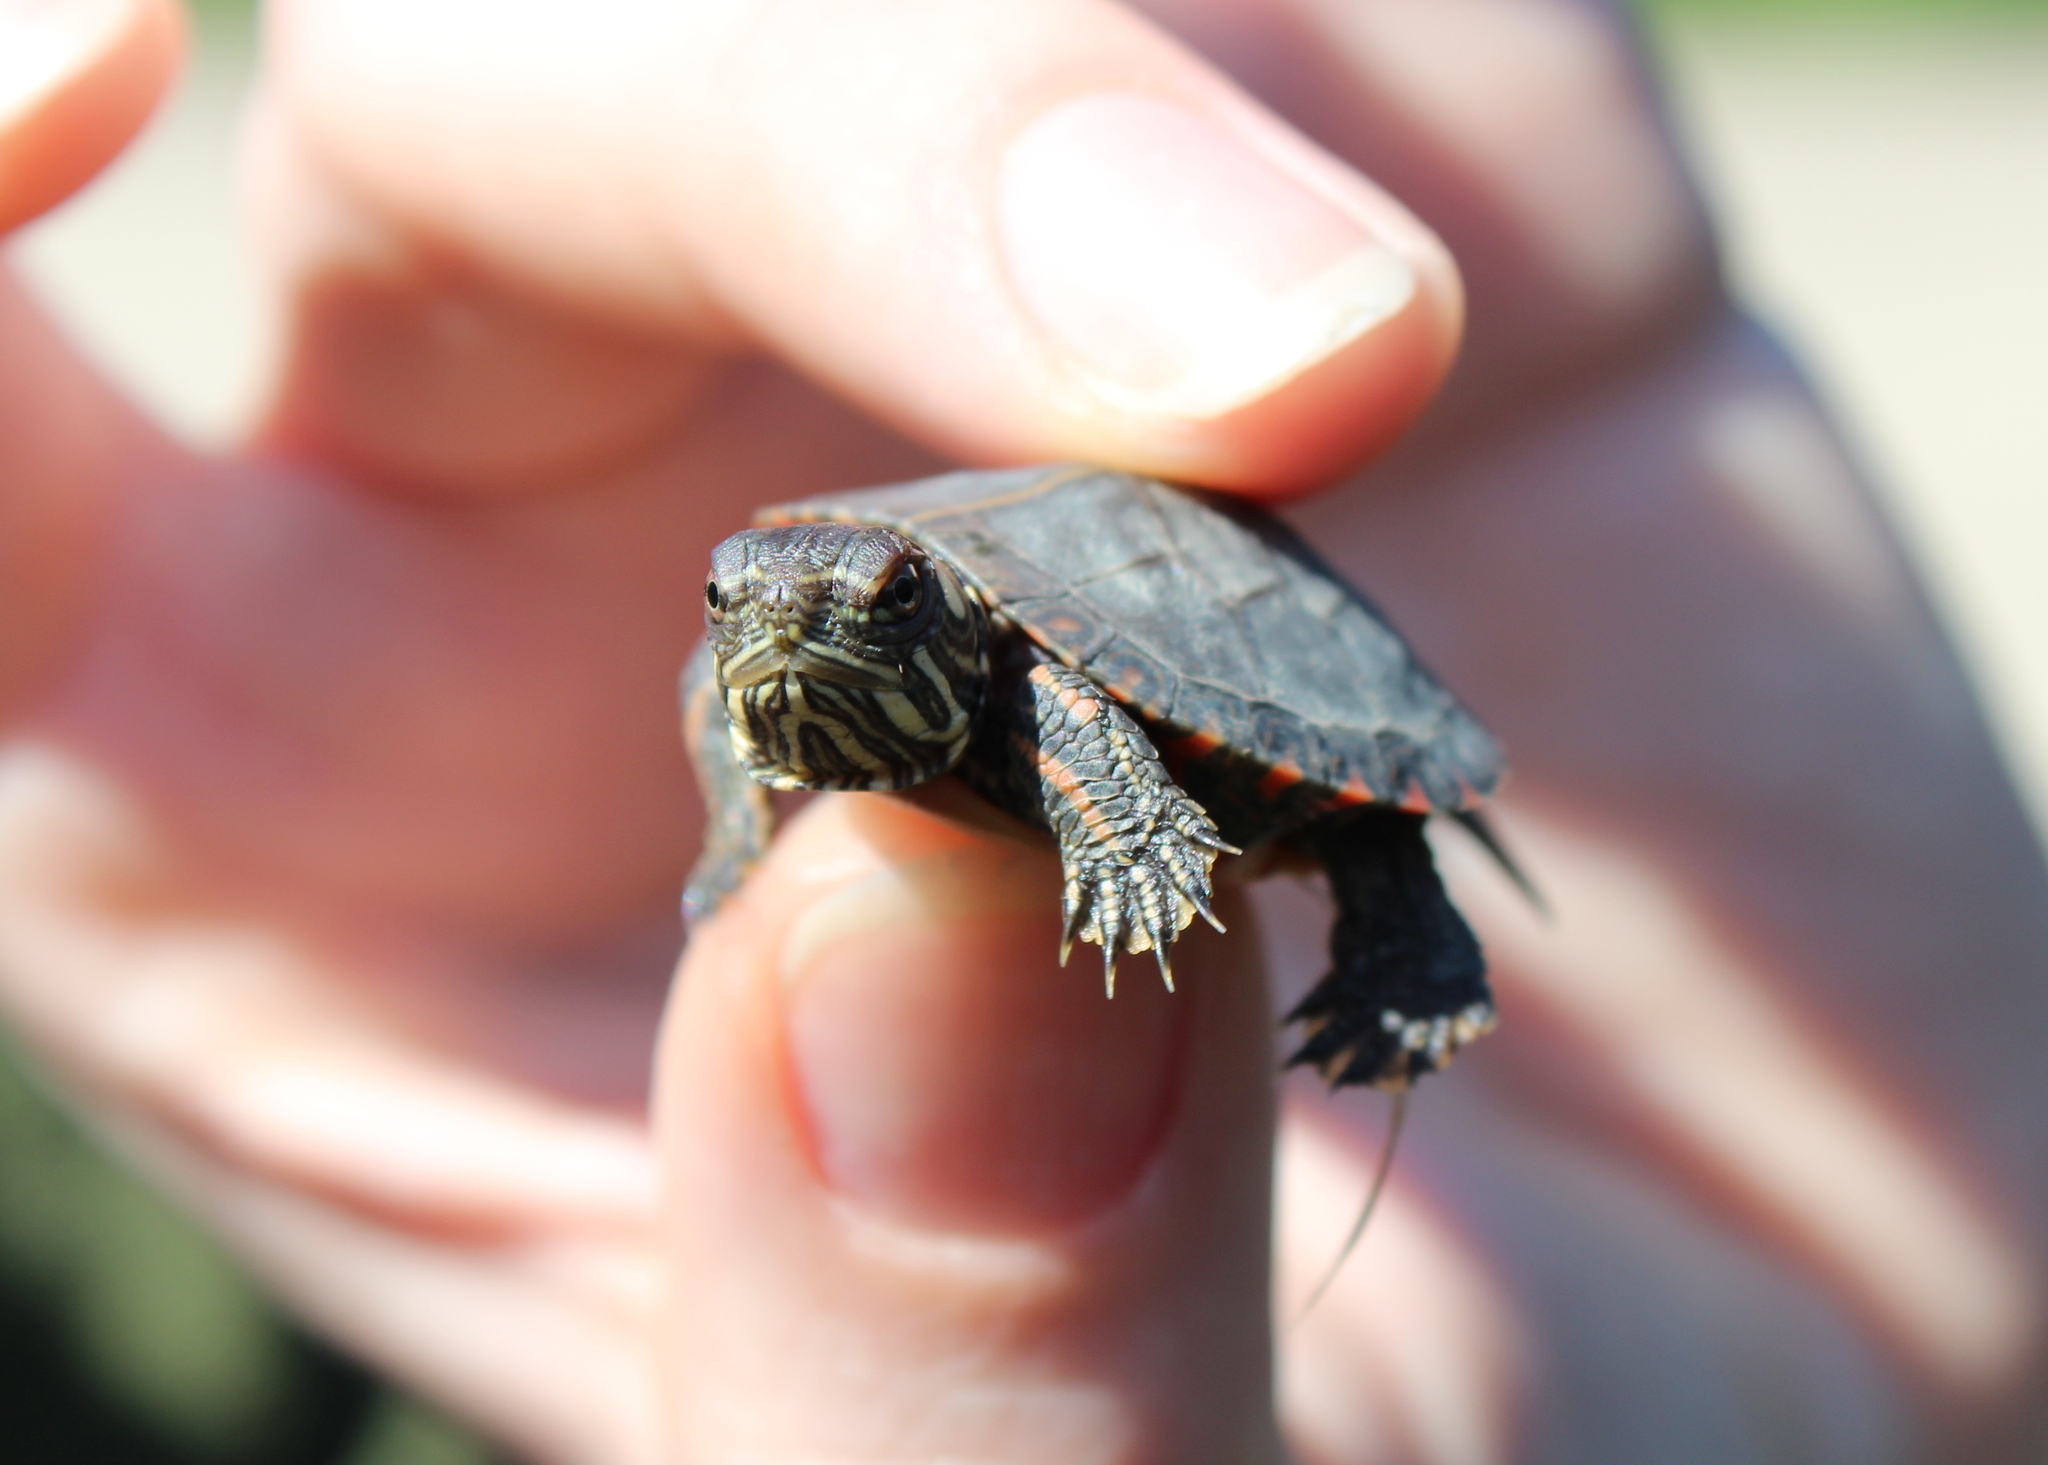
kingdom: Animalia
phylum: Chordata
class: Testudines
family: Emydidae
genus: Chrysemys
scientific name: Chrysemys picta
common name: Painted turtle
